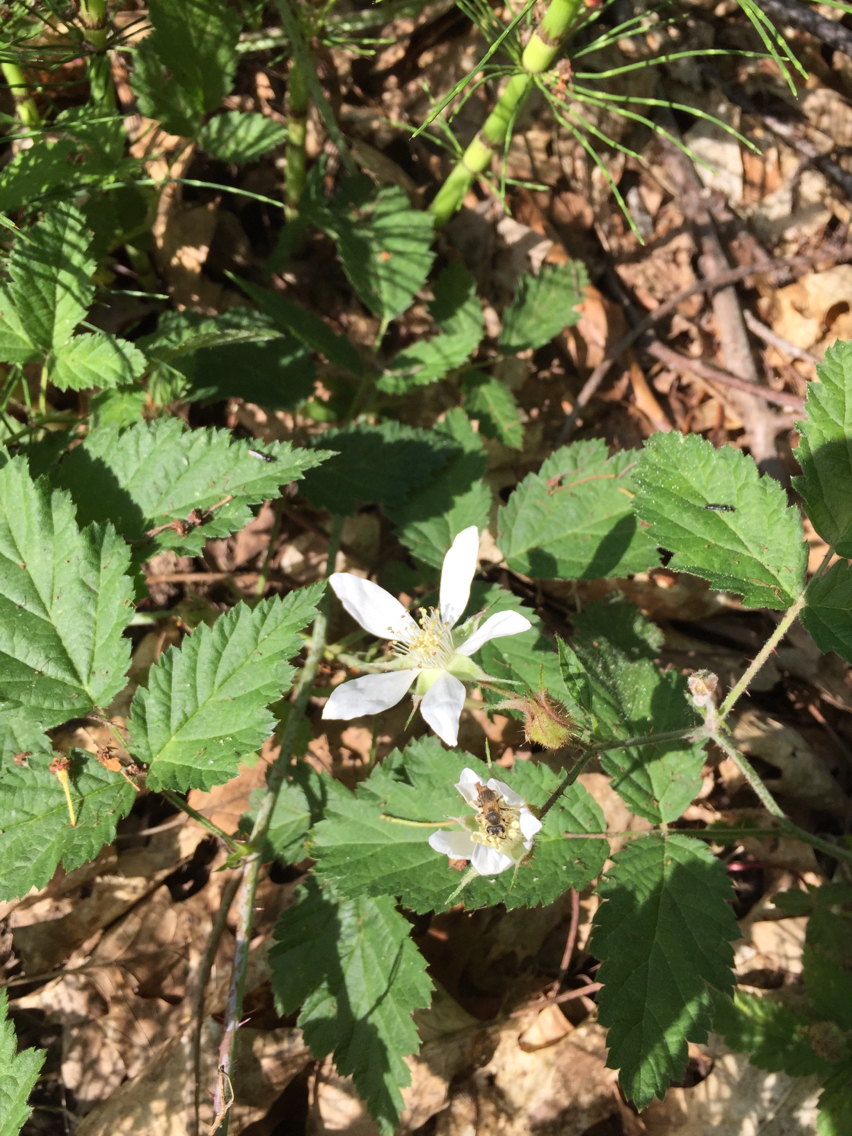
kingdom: Plantae
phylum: Tracheophyta
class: Magnoliopsida
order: Rosales
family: Rosaceae
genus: Rubus
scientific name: Rubus ursinus
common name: Pacific blackberry
